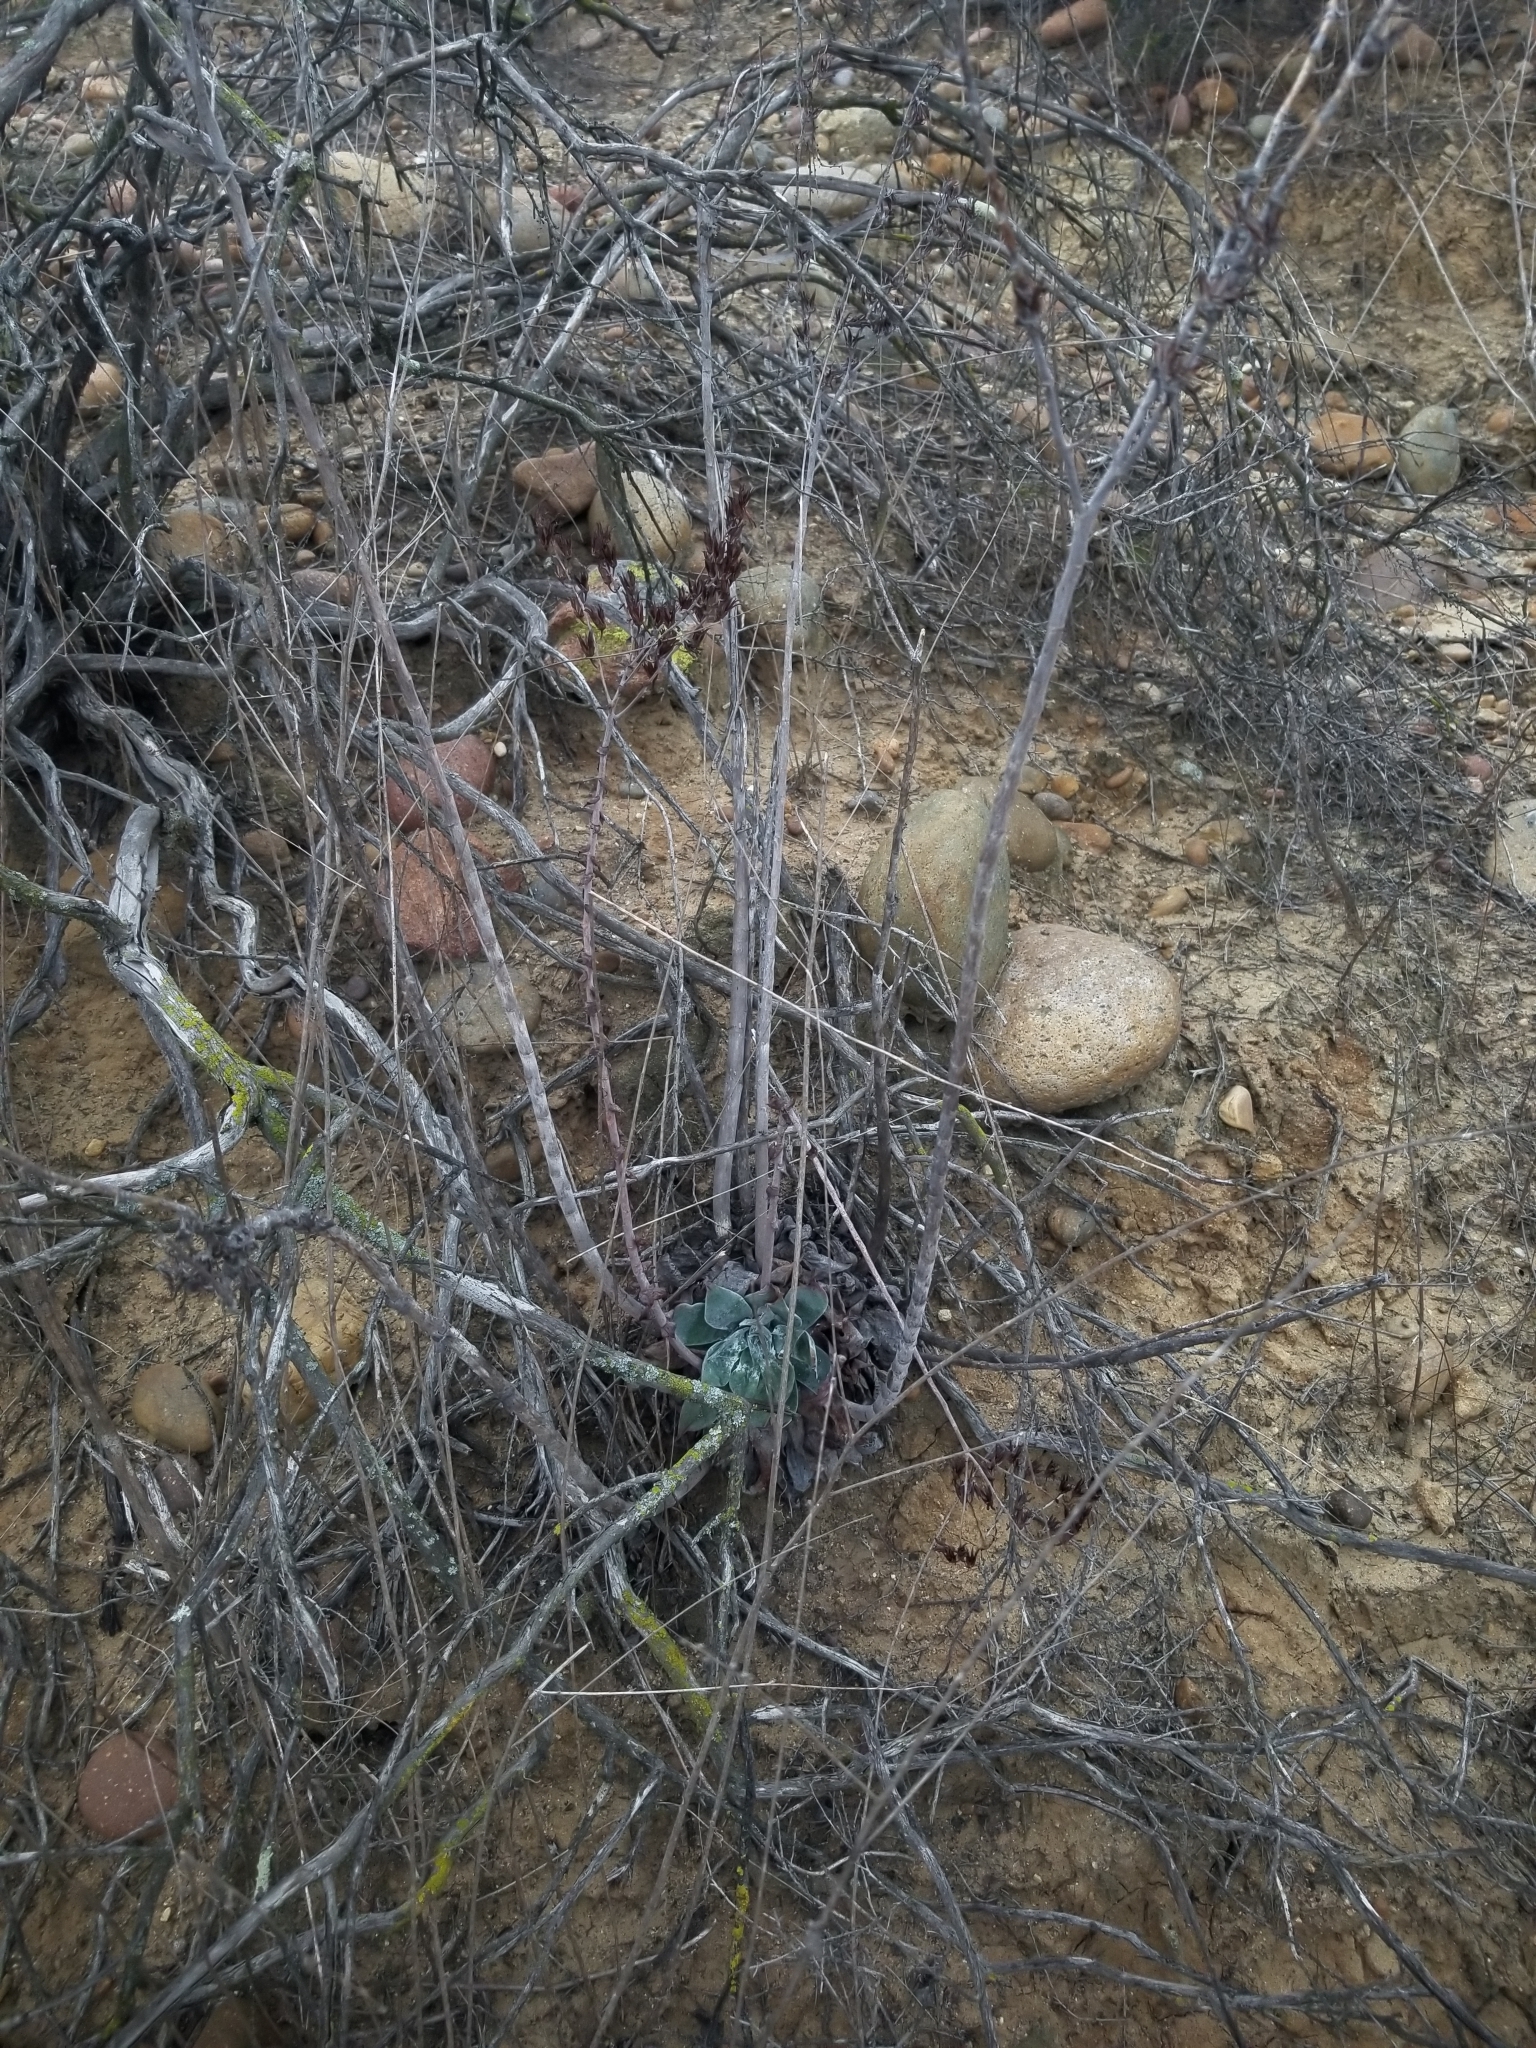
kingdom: Plantae
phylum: Tracheophyta
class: Magnoliopsida
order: Saxifragales
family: Crassulaceae
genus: Dudleya
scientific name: Dudleya pulverulenta
